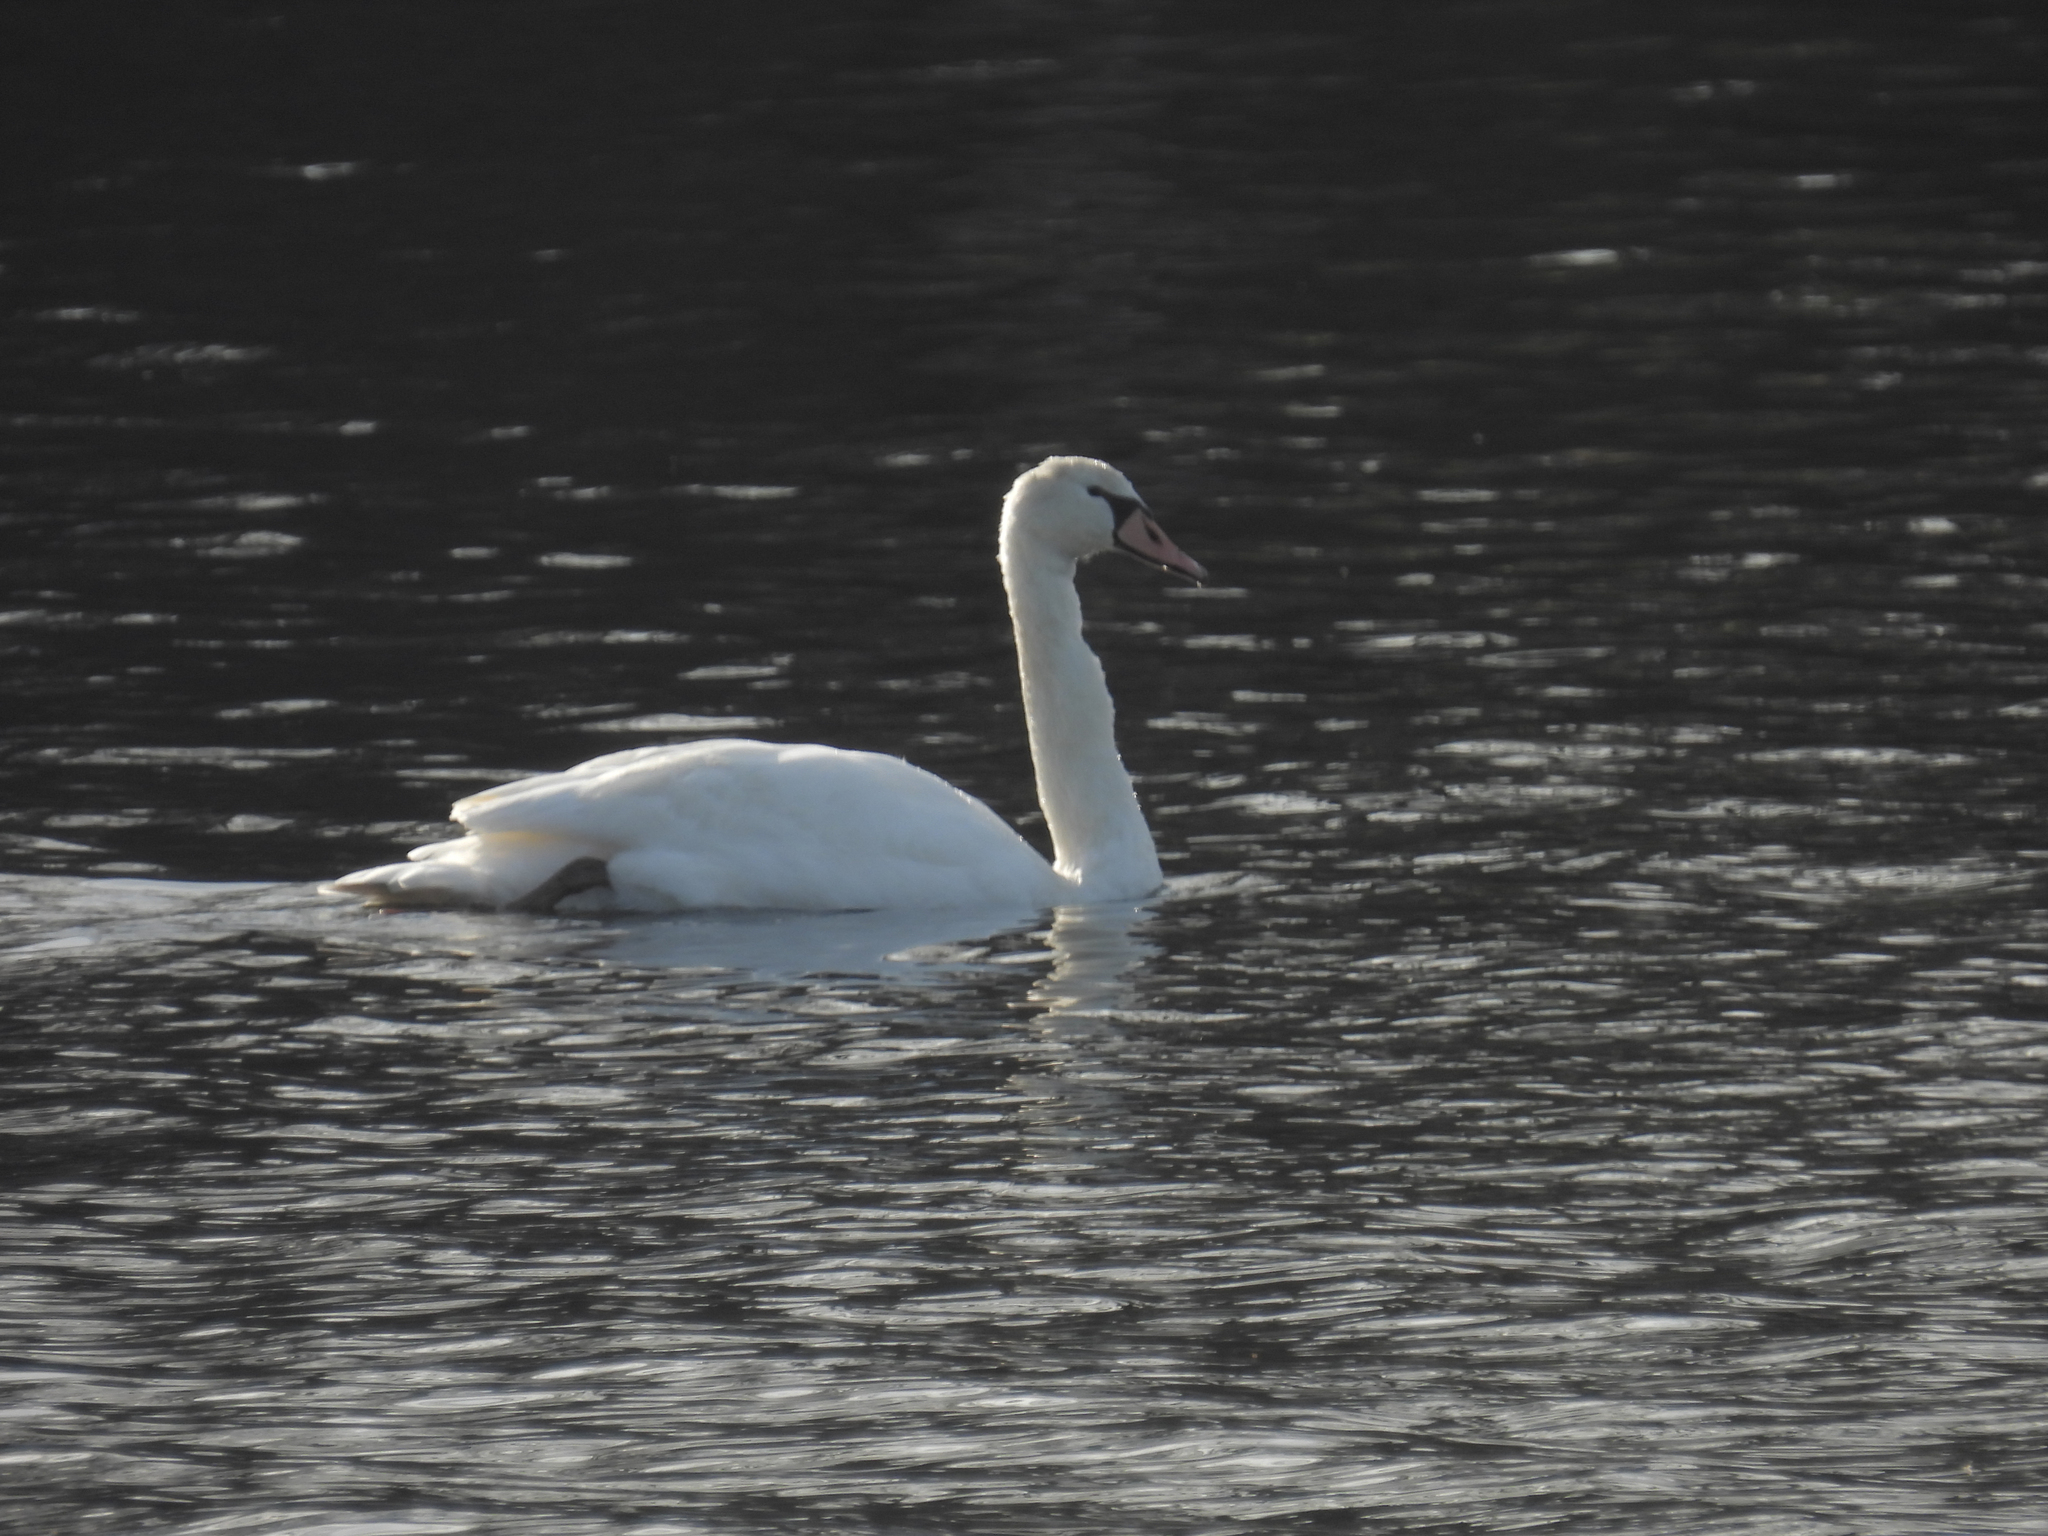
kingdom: Animalia
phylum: Chordata
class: Aves
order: Anseriformes
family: Anatidae
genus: Cygnus
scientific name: Cygnus olor
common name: Mute swan
